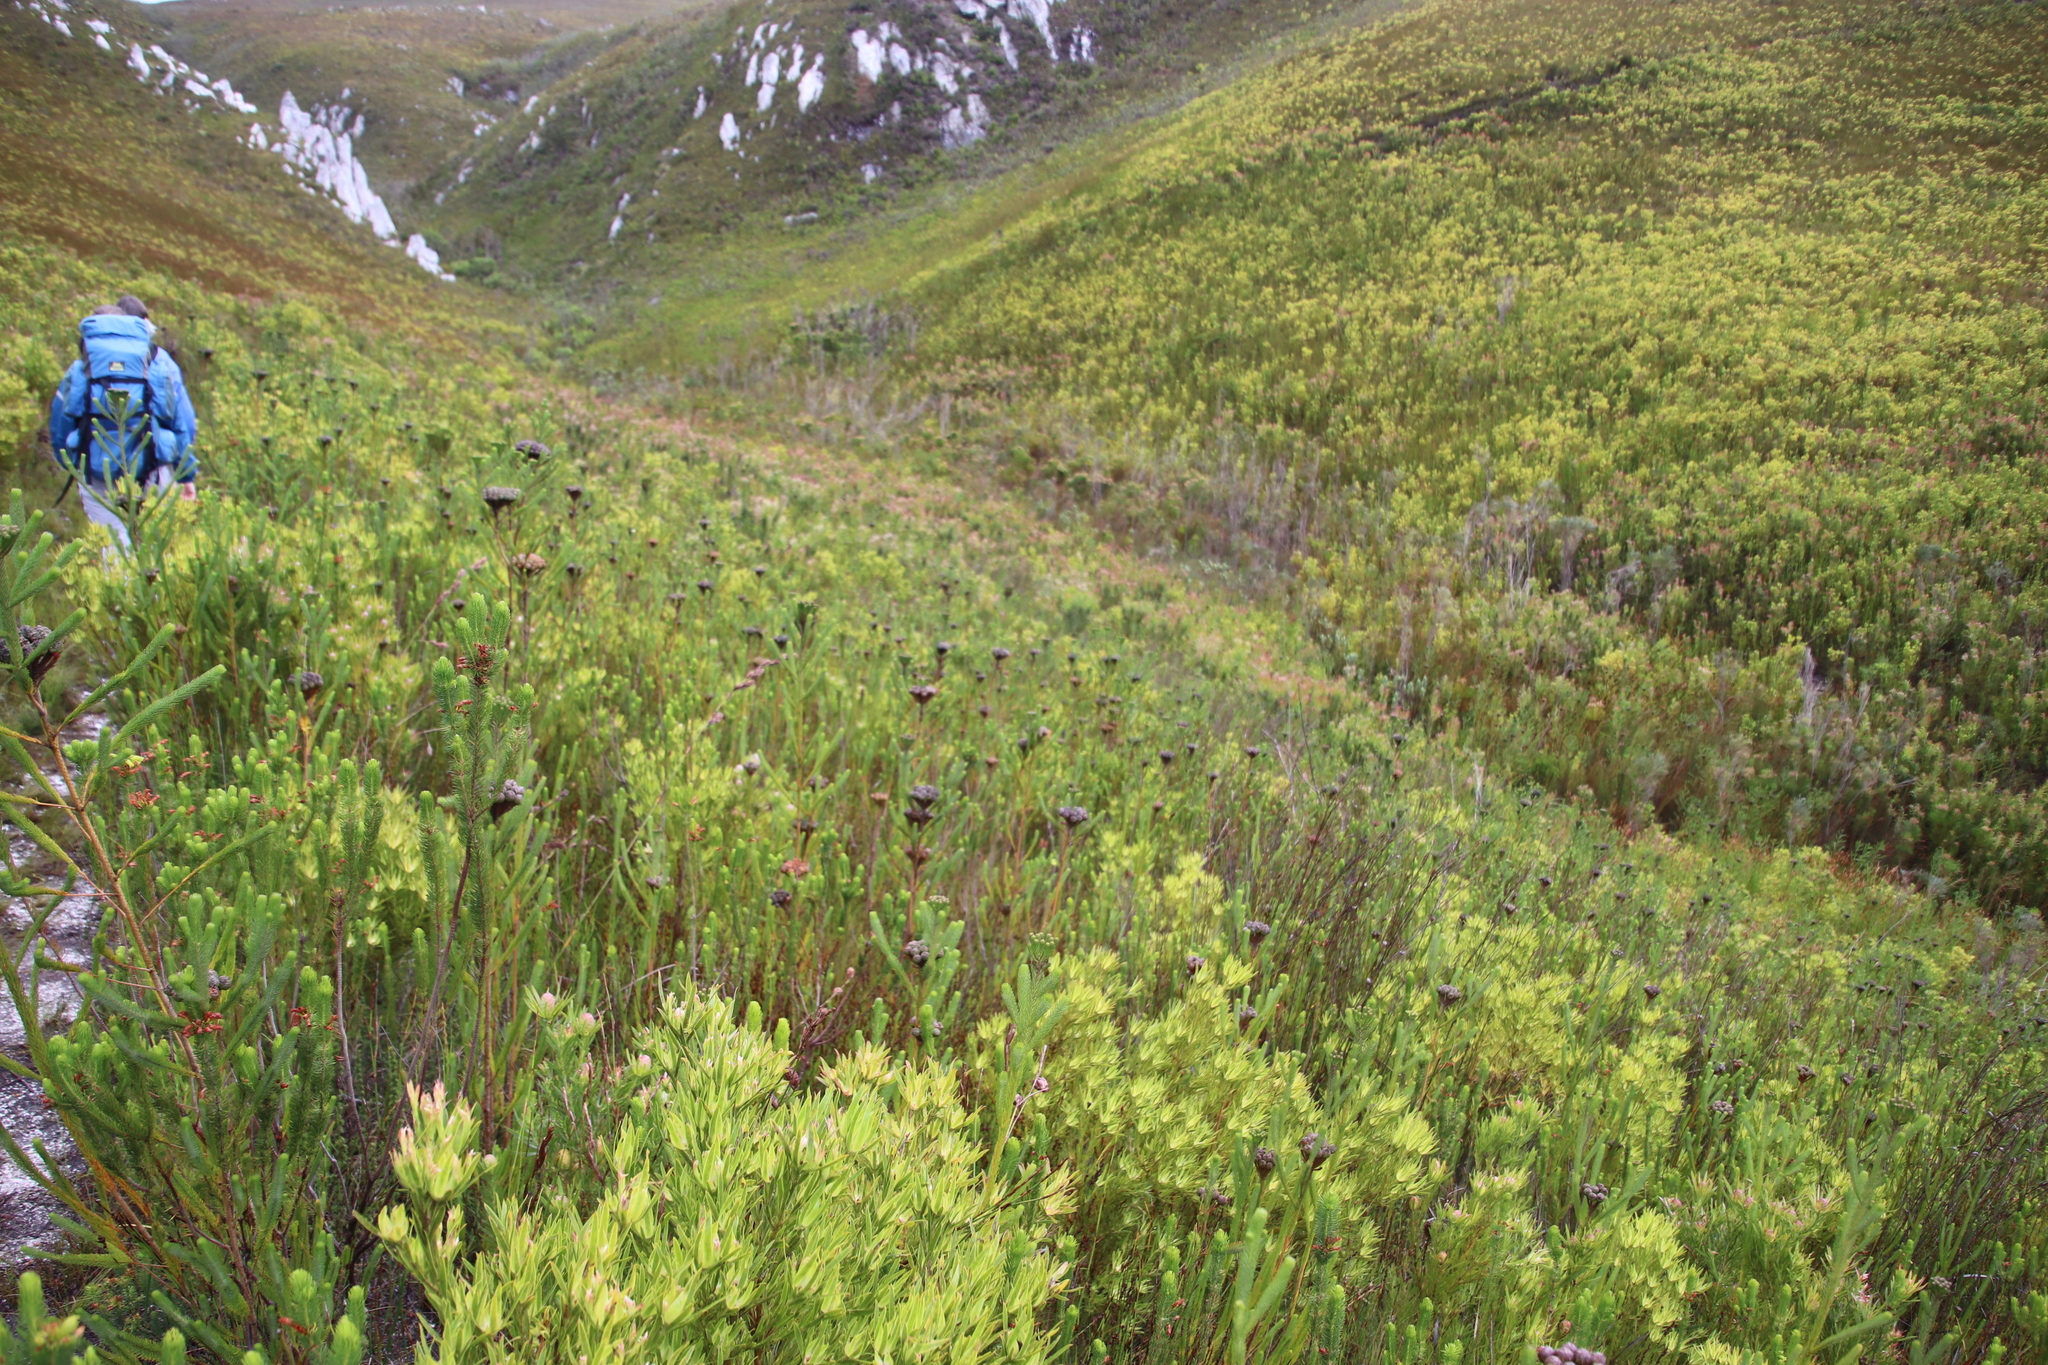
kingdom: Plantae
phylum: Tracheophyta
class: Magnoliopsida
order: Bruniales
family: Bruniaceae
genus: Berzelia
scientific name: Berzelia albiflora
